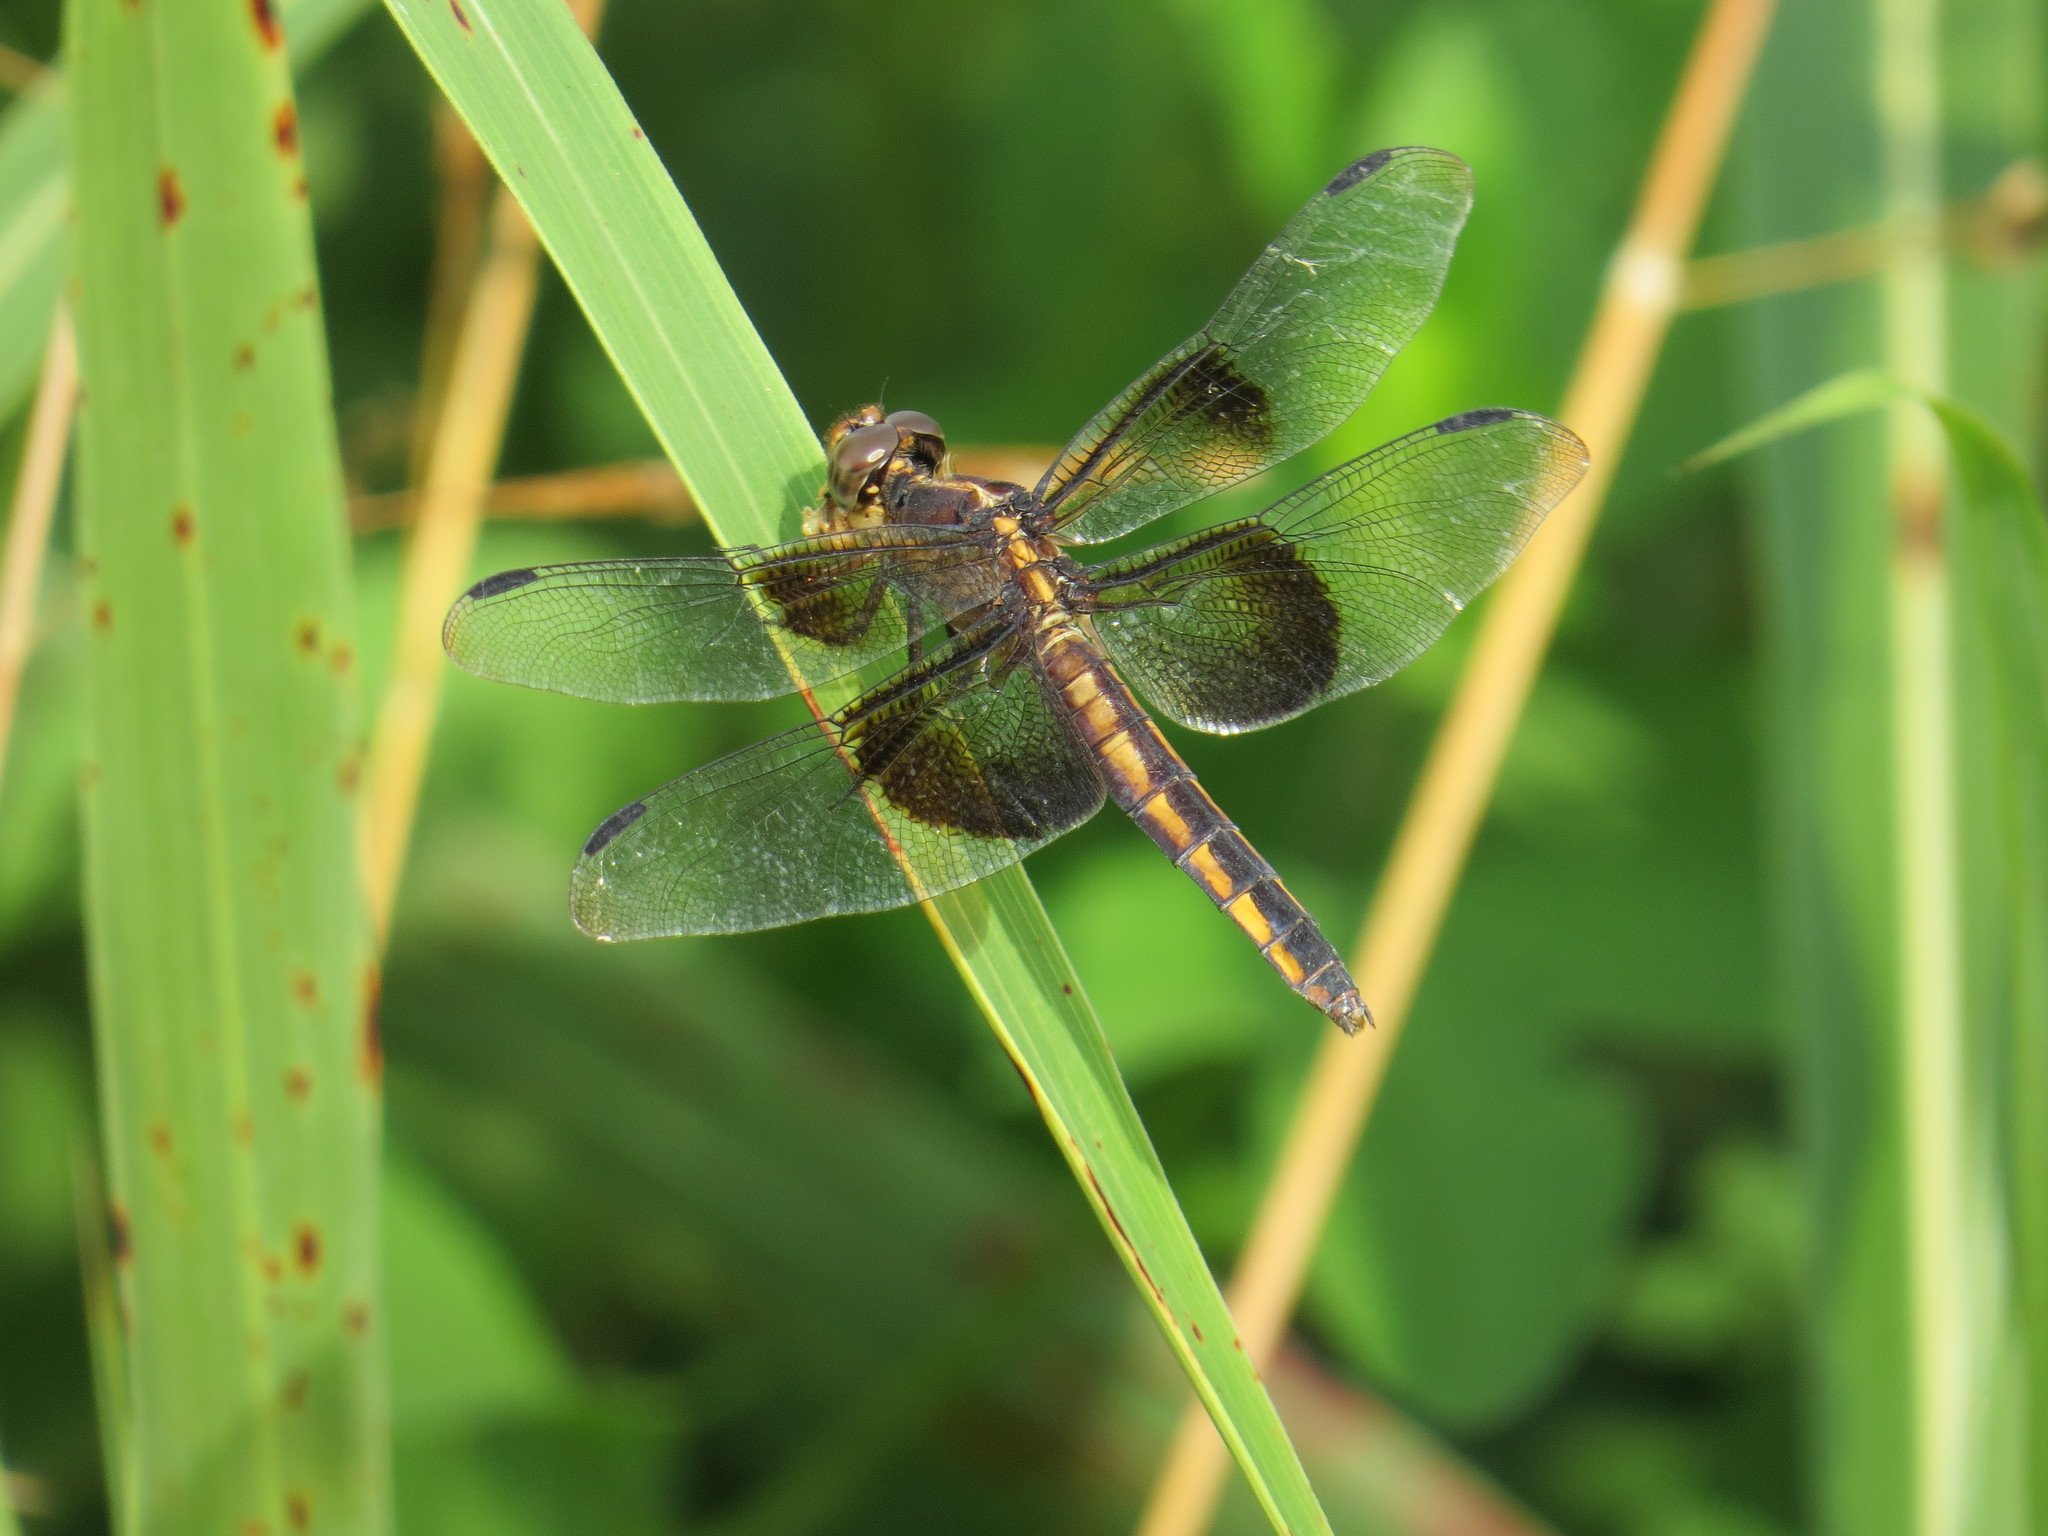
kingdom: Animalia
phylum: Arthropoda
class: Insecta
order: Odonata
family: Libellulidae
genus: Libellula
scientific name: Libellula luctuosa
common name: Widow skimmer
